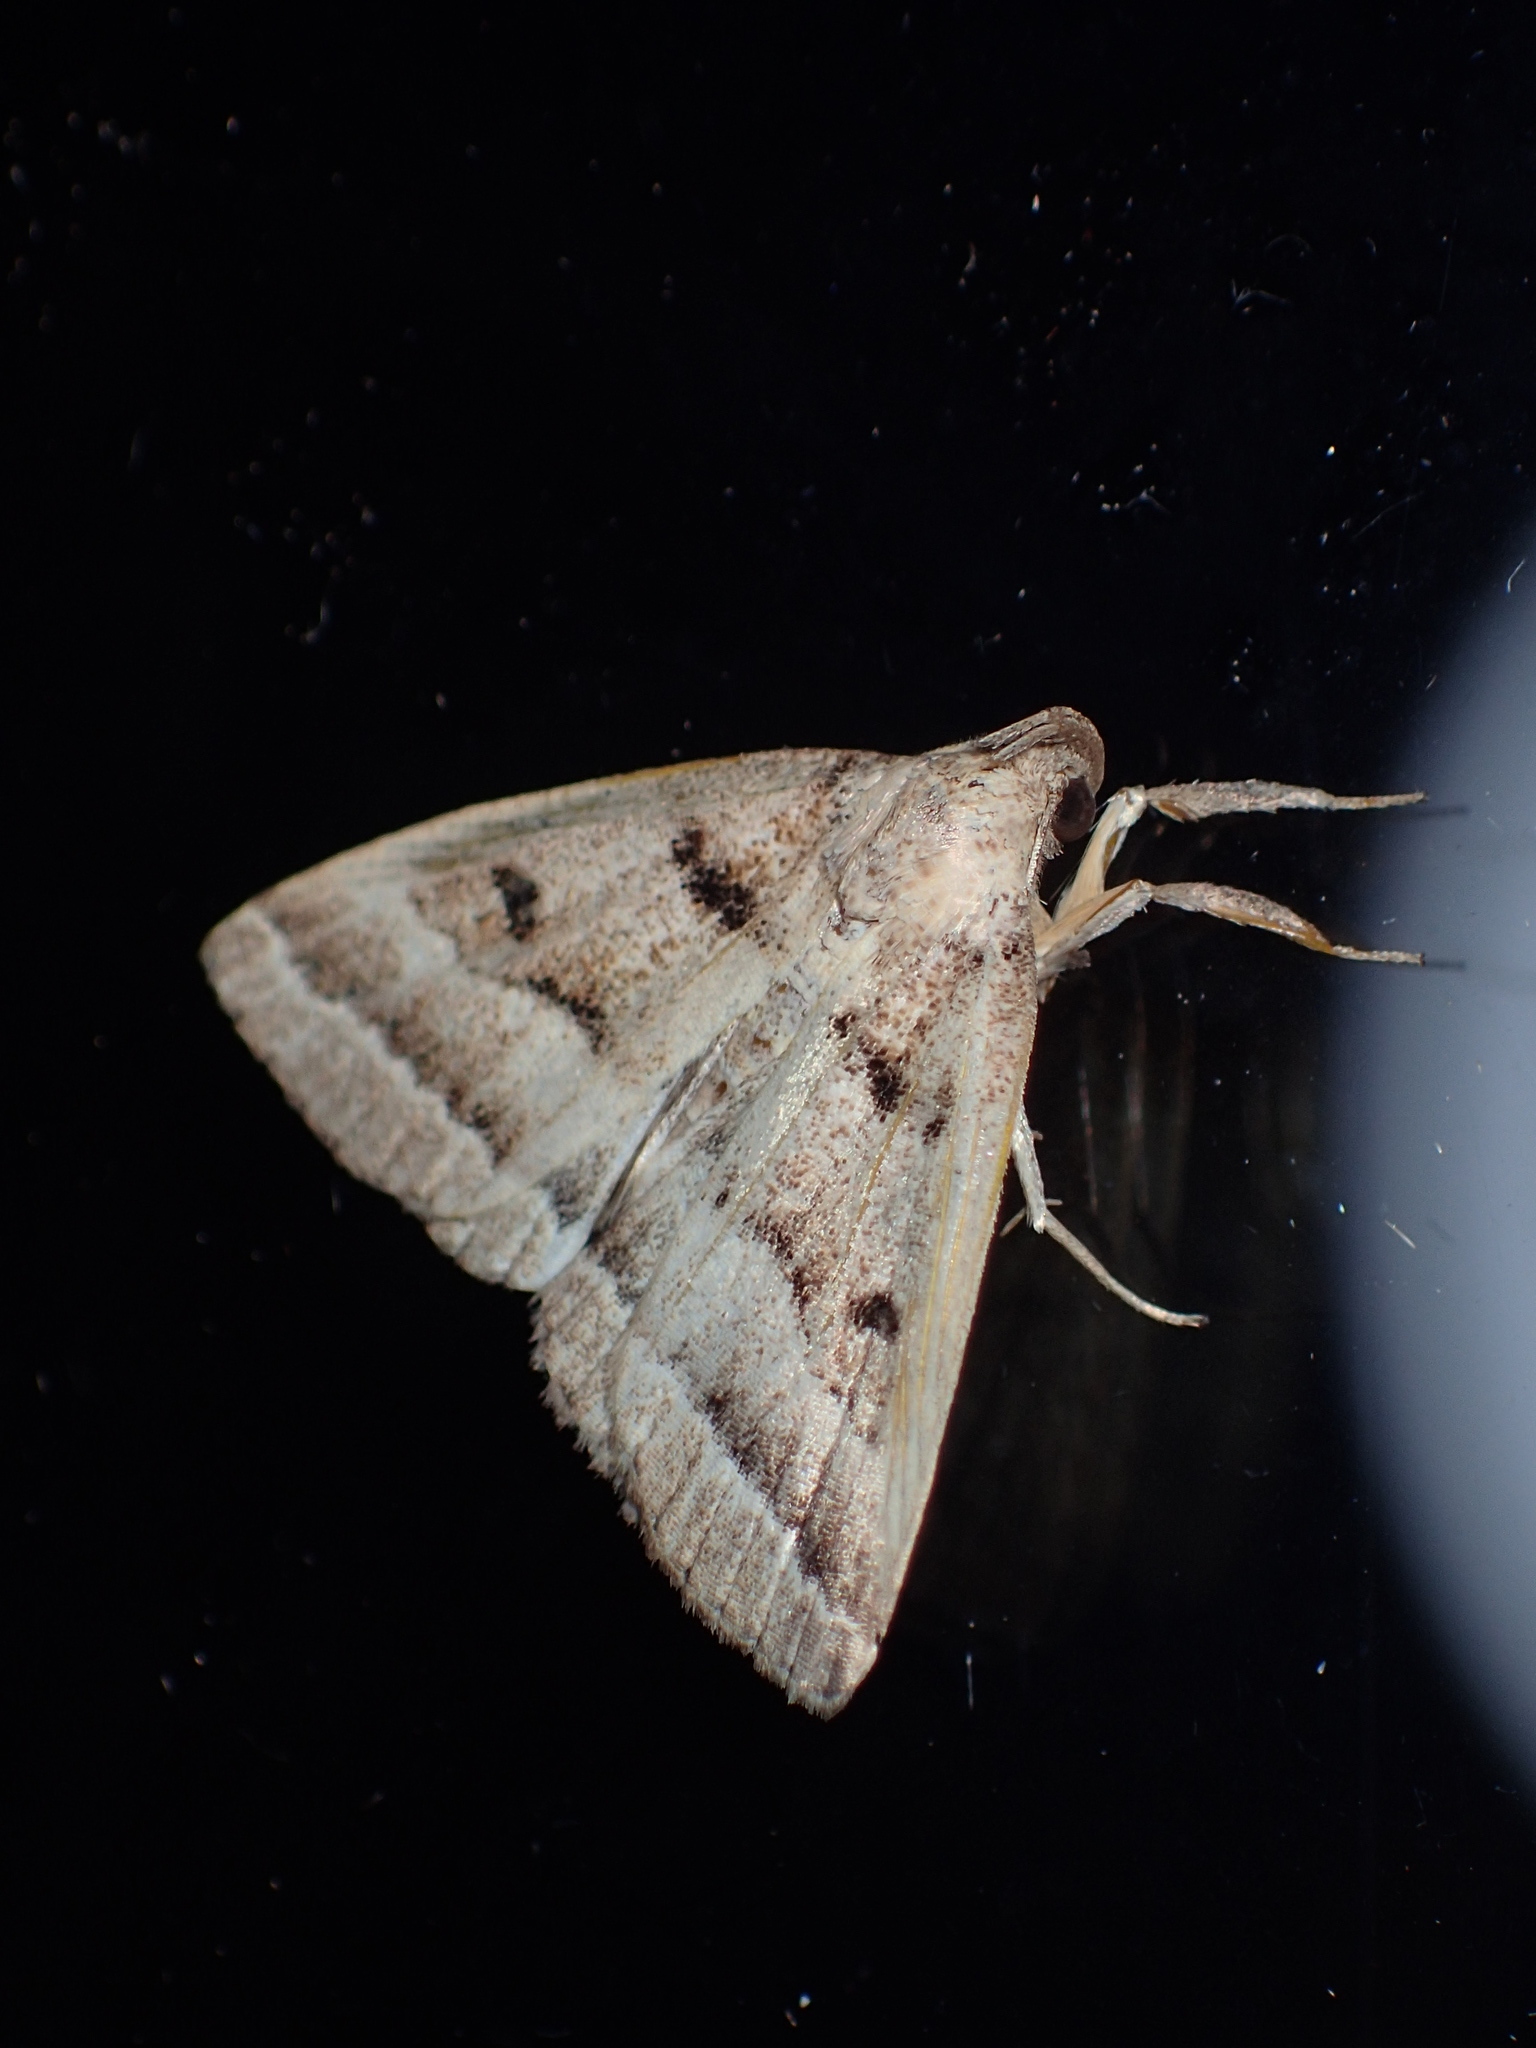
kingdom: Animalia
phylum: Arthropoda
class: Insecta
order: Lepidoptera
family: Erebidae
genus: Zanclognatha
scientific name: Zanclognatha atrilineella
